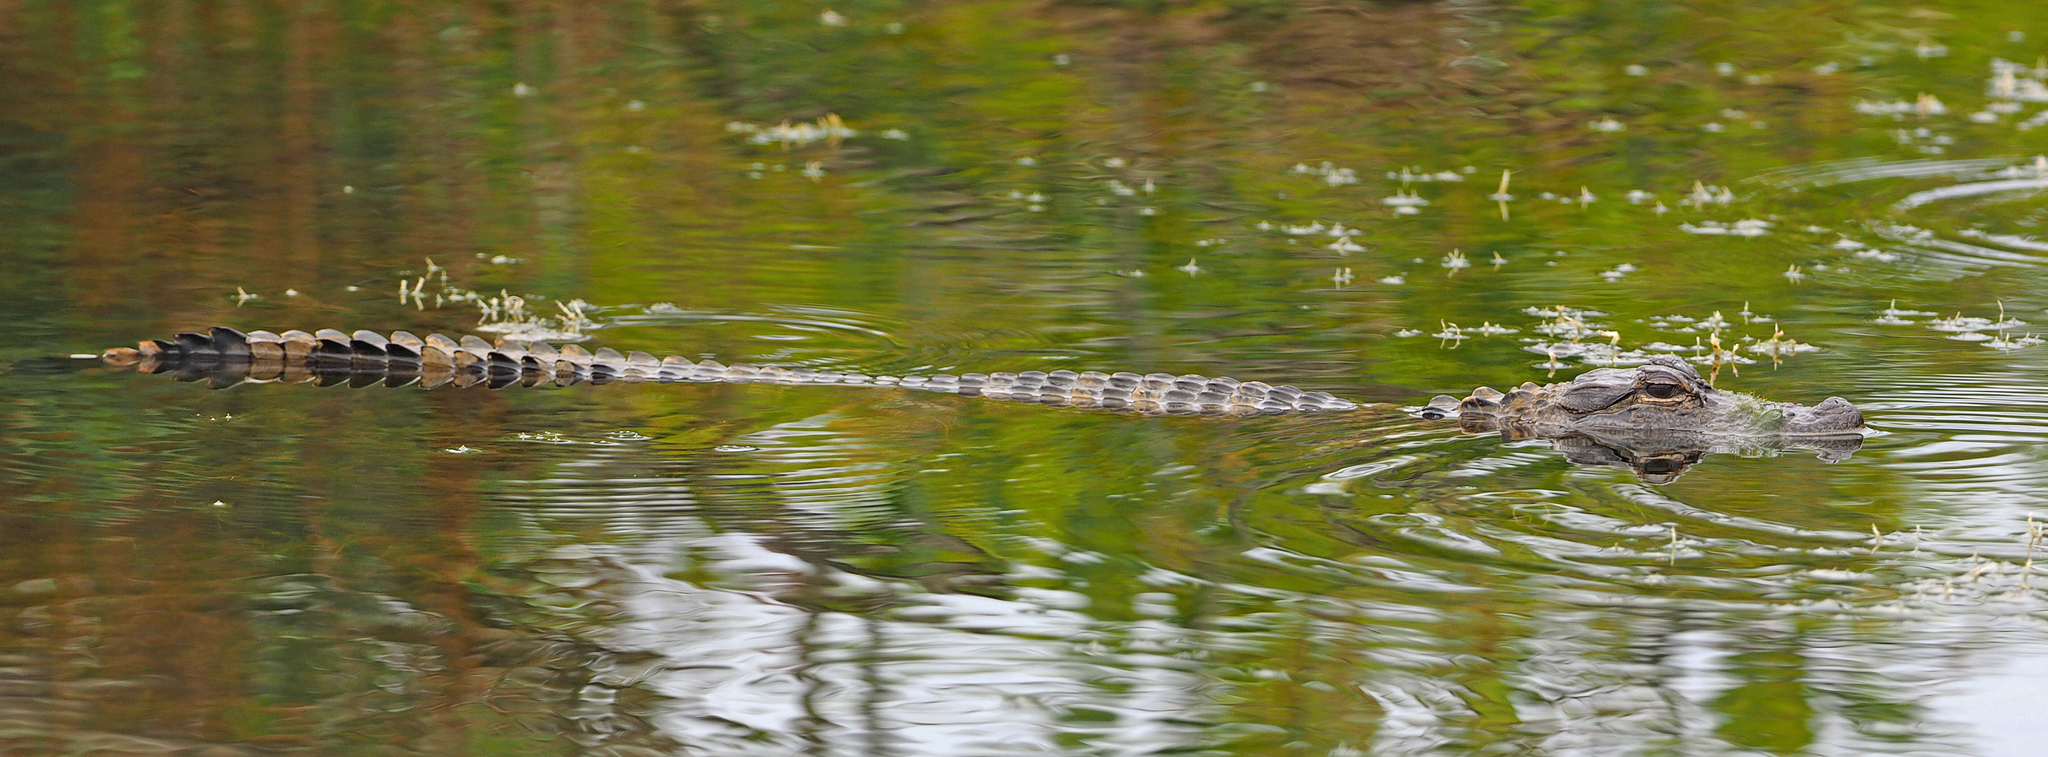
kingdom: Animalia
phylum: Chordata
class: Crocodylia
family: Alligatoridae
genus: Alligator
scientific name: Alligator mississippiensis
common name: American alligator
